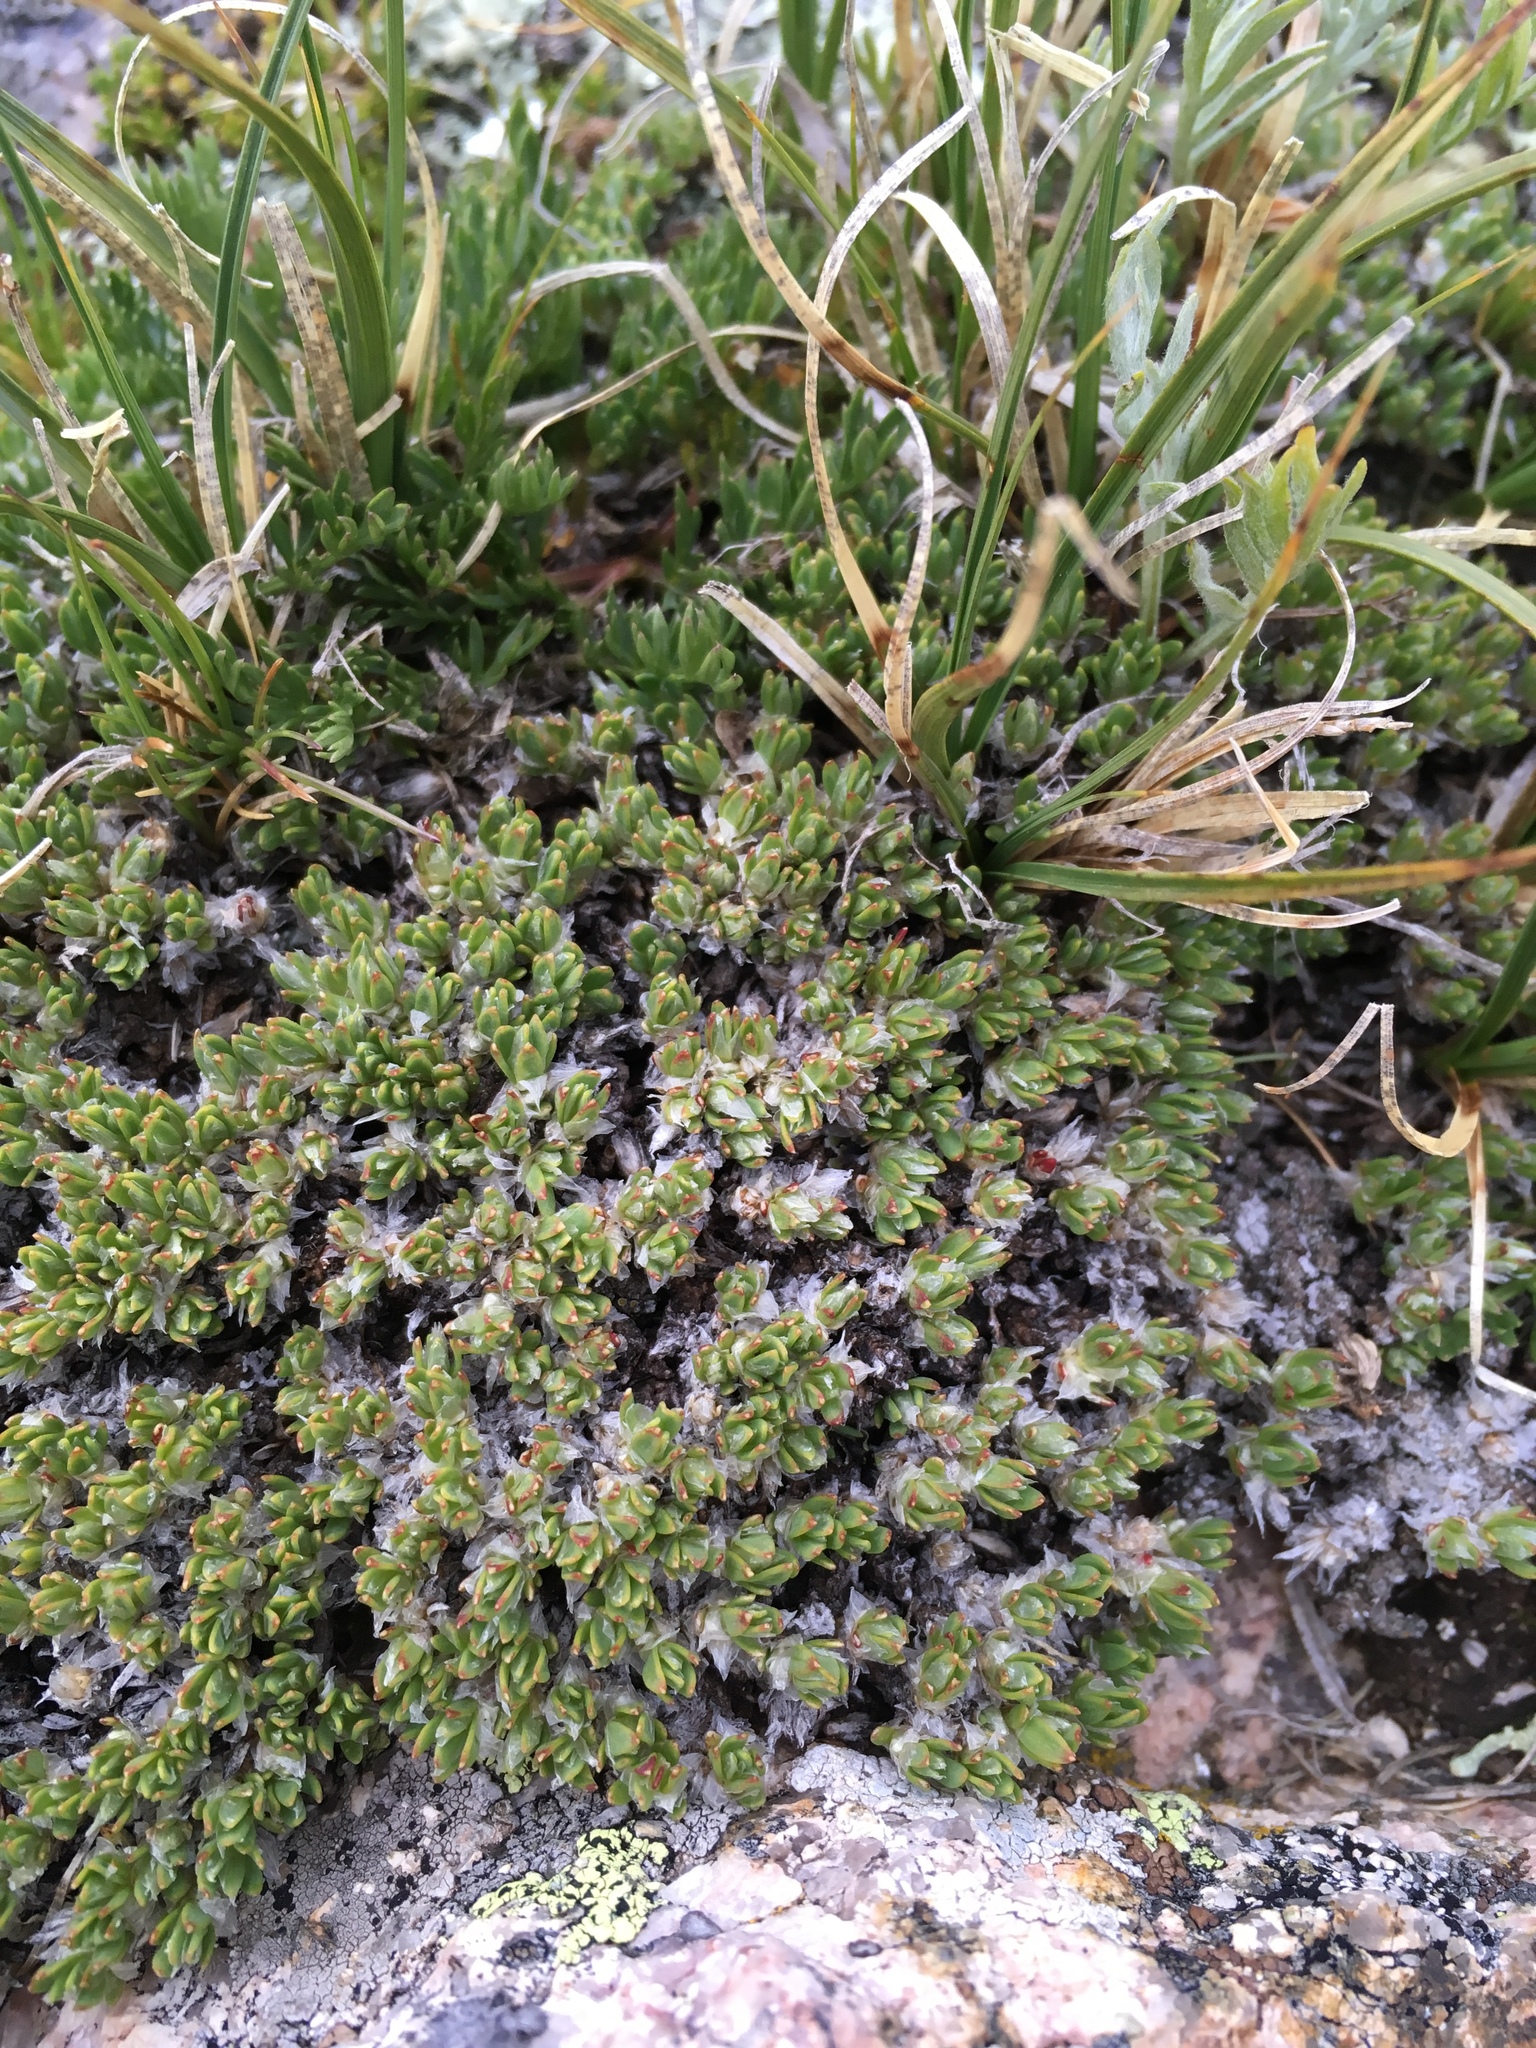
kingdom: Plantae
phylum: Tracheophyta
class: Magnoliopsida
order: Caryophyllales
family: Caryophyllaceae
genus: Paronychia
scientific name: Paronychia pulvinata
